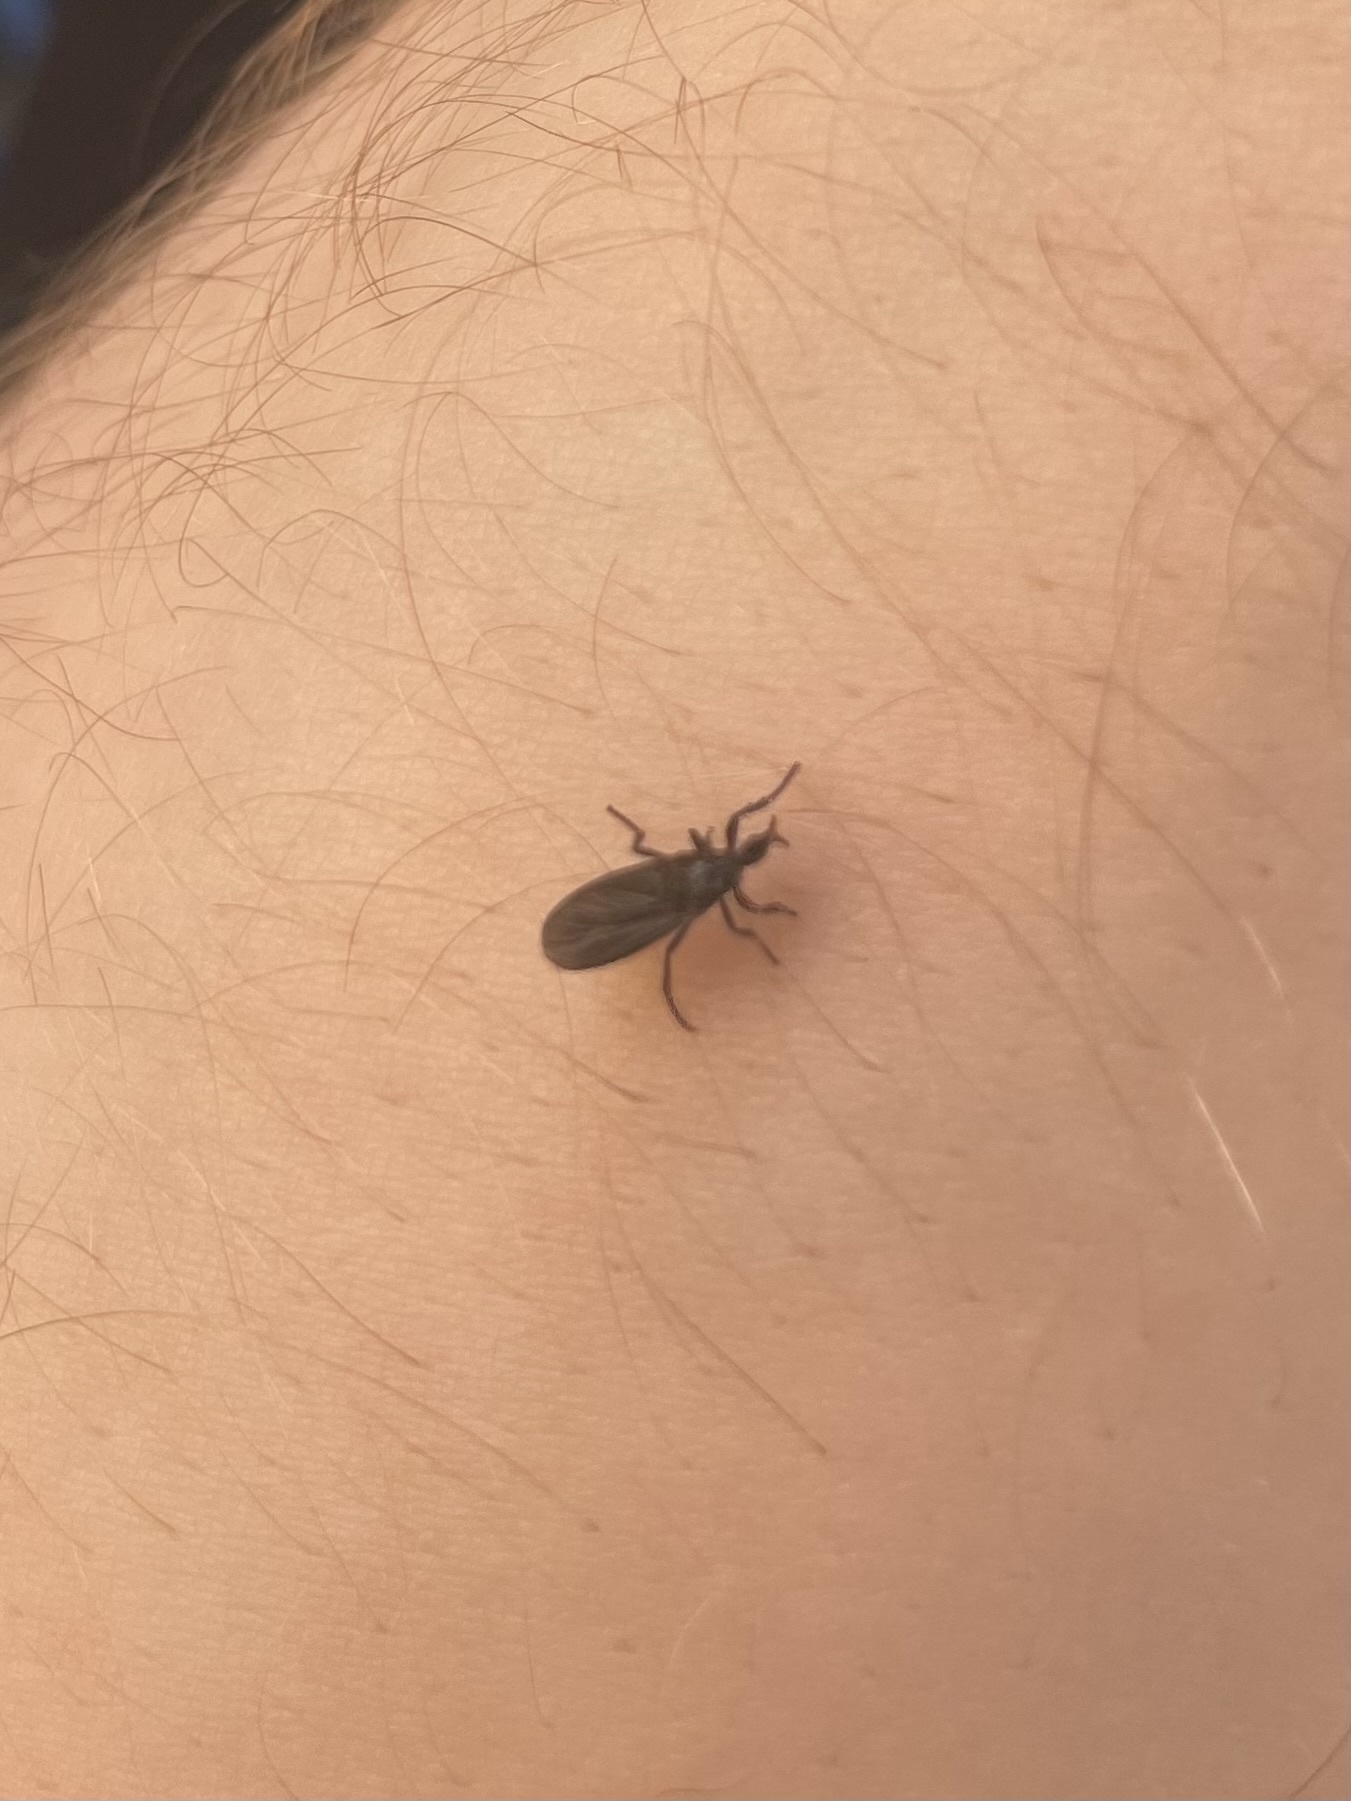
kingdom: Animalia
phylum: Arthropoda
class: Insecta
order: Diptera
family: Bibionidae
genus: Dilophus
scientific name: Dilophus orbatus
